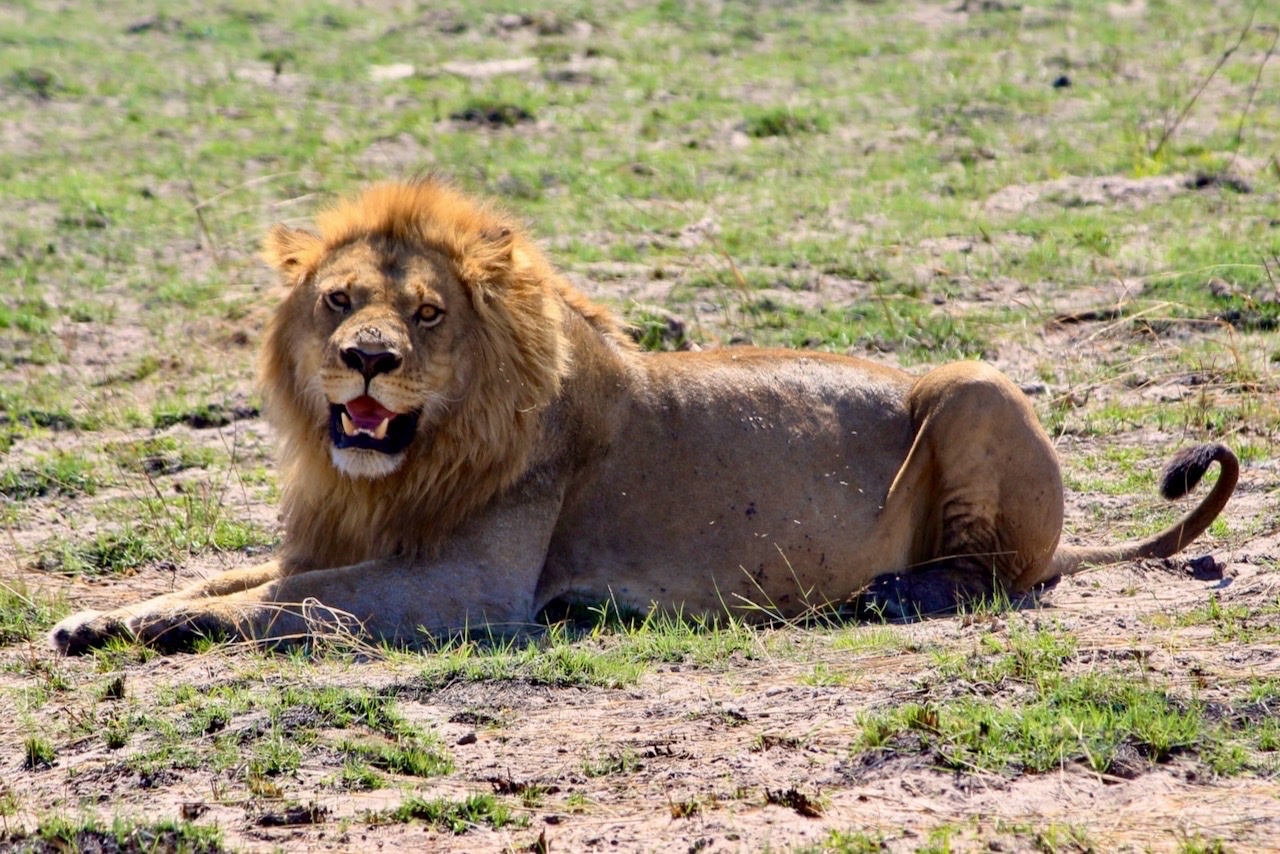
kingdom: Animalia
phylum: Chordata
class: Mammalia
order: Carnivora
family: Felidae
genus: Panthera
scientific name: Panthera leo
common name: Lion
